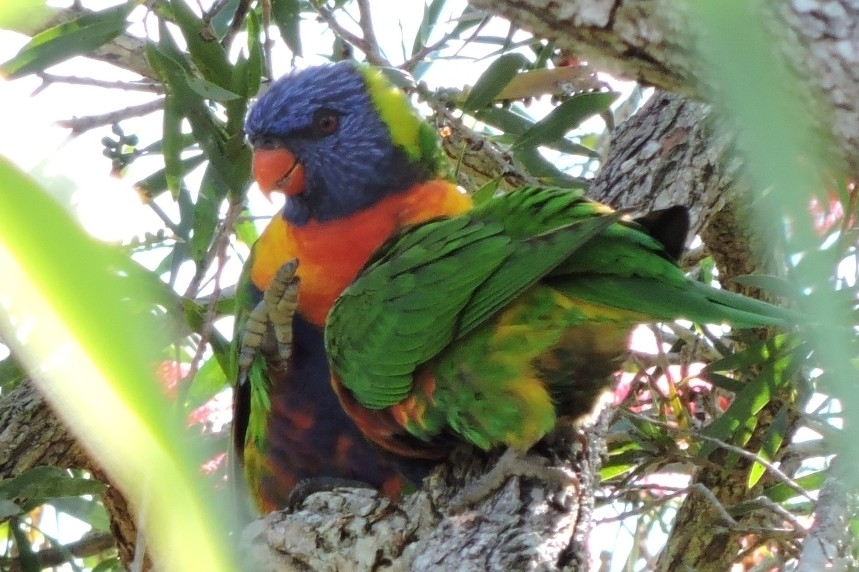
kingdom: Animalia
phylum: Chordata
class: Aves
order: Psittaciformes
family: Psittacidae
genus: Trichoglossus
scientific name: Trichoglossus haematodus
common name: Coconut lorikeet
